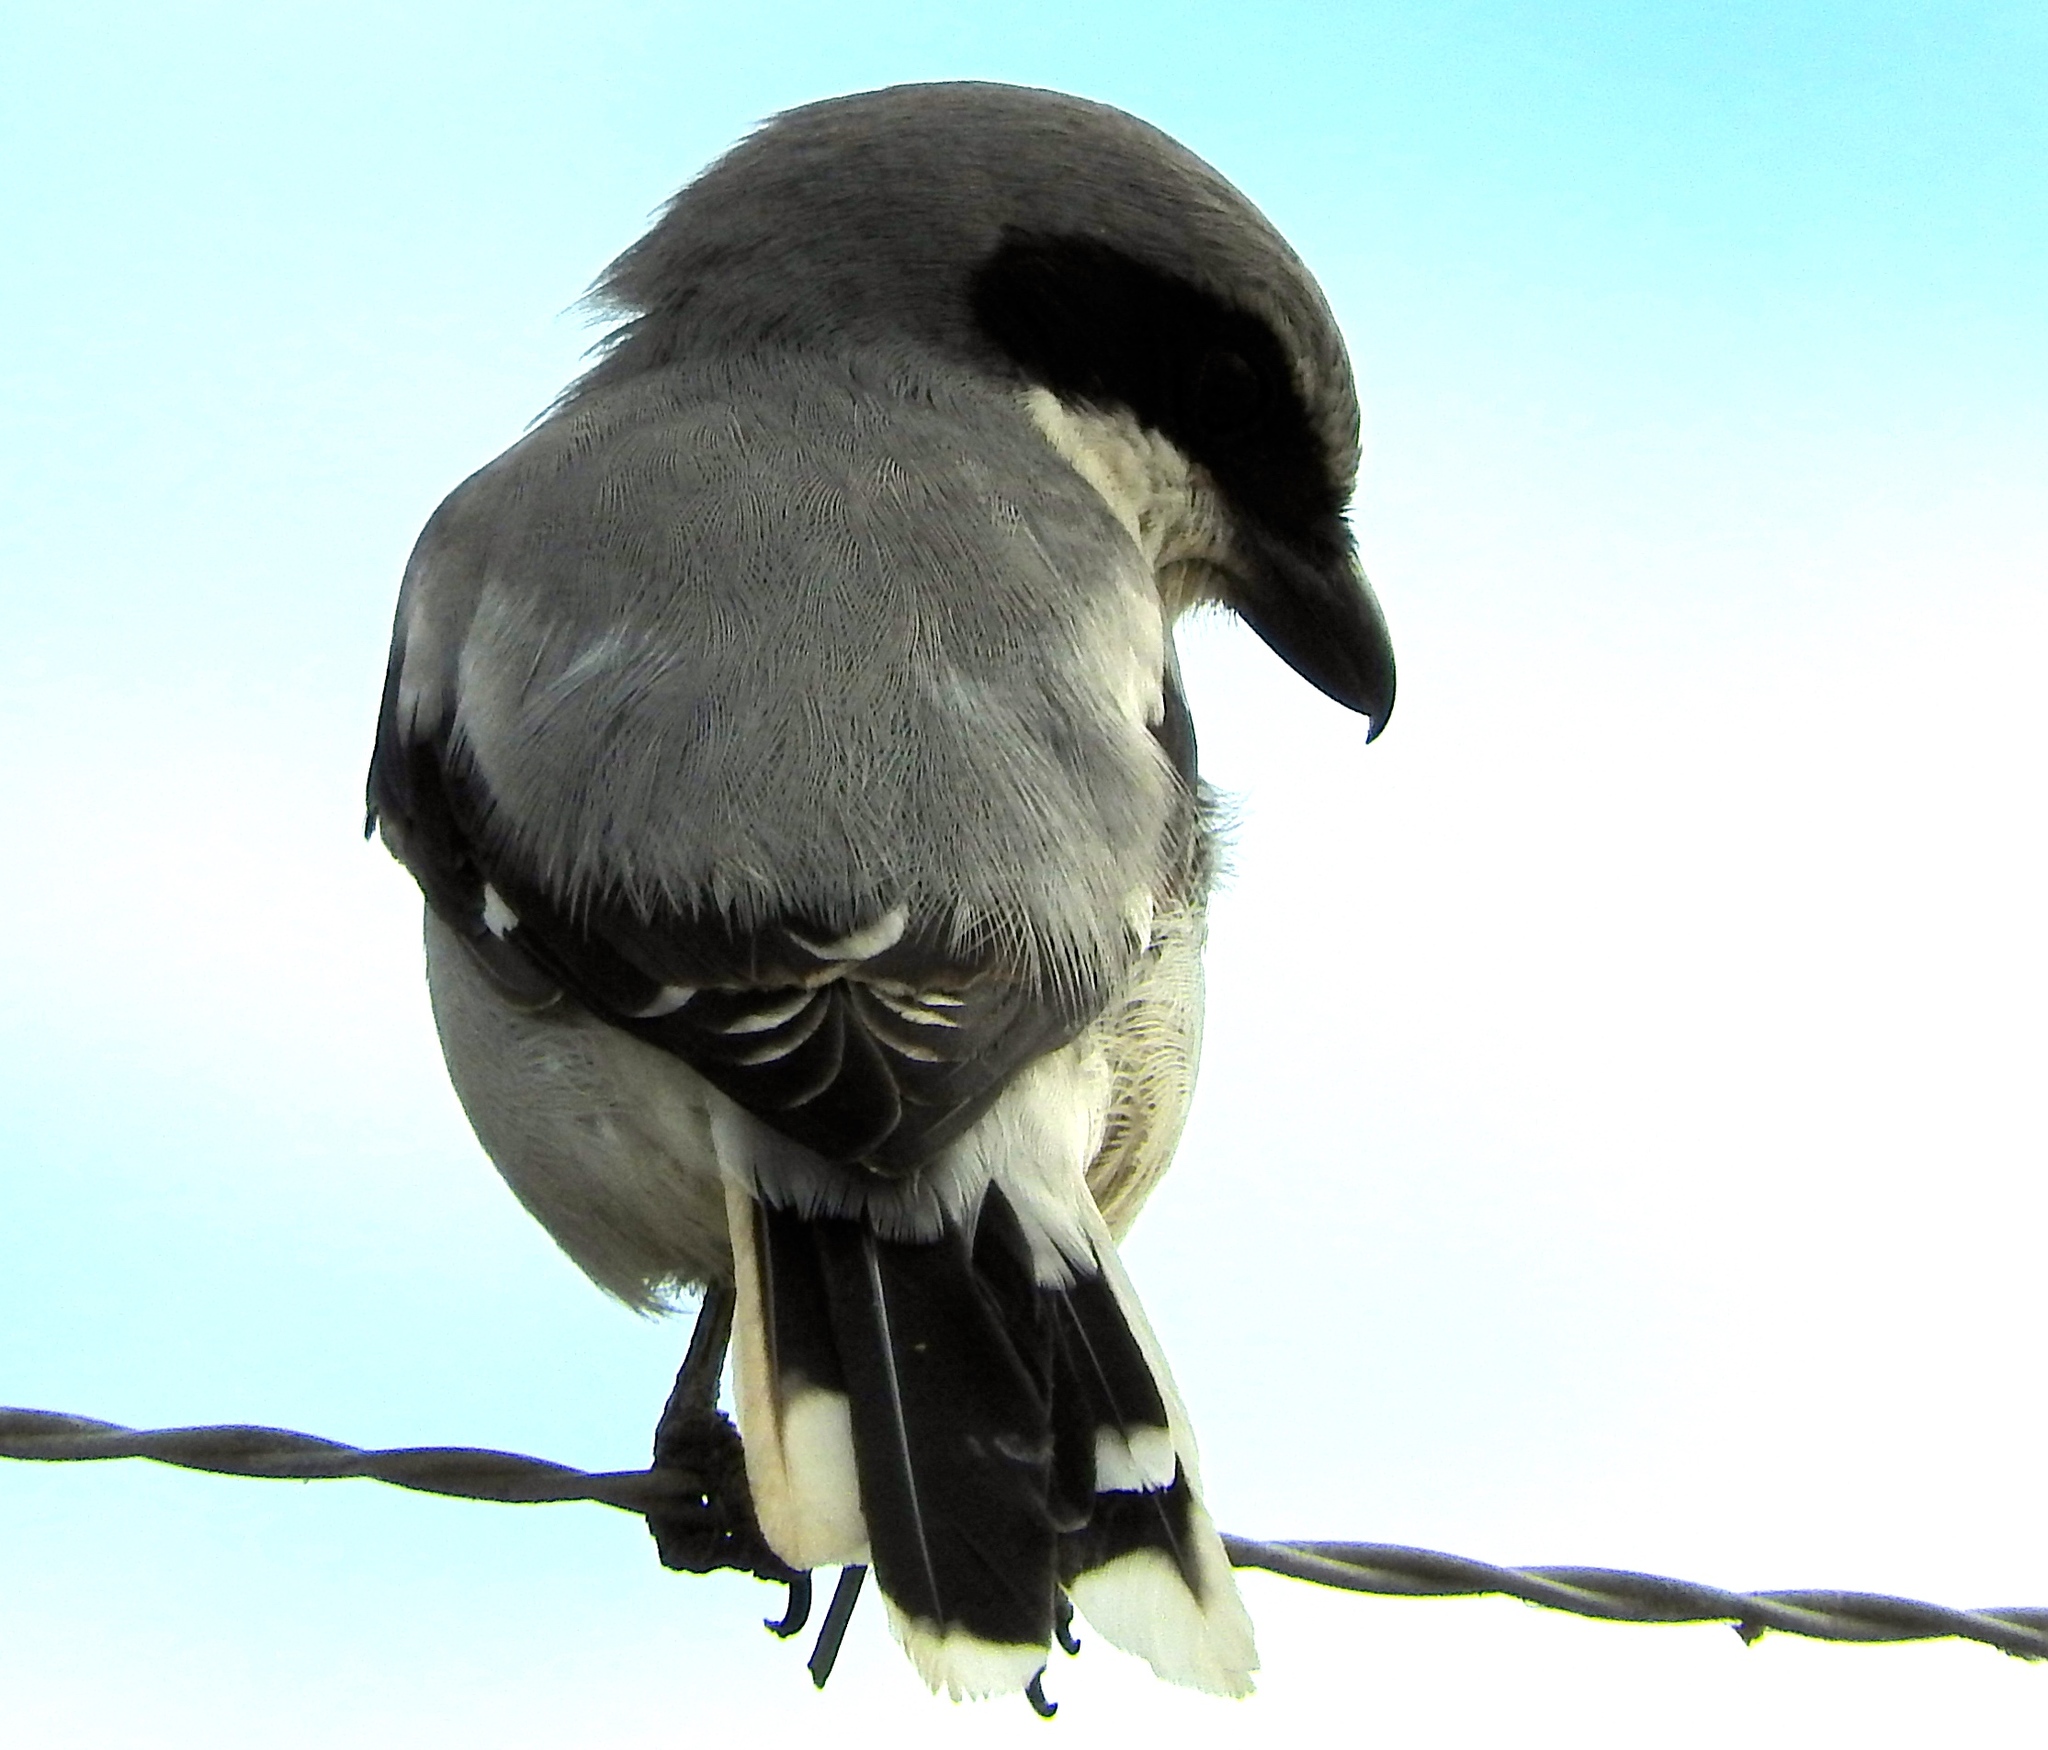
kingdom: Animalia
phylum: Chordata
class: Aves
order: Passeriformes
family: Laniidae
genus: Lanius
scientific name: Lanius ludovicianus
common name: Loggerhead shrike
